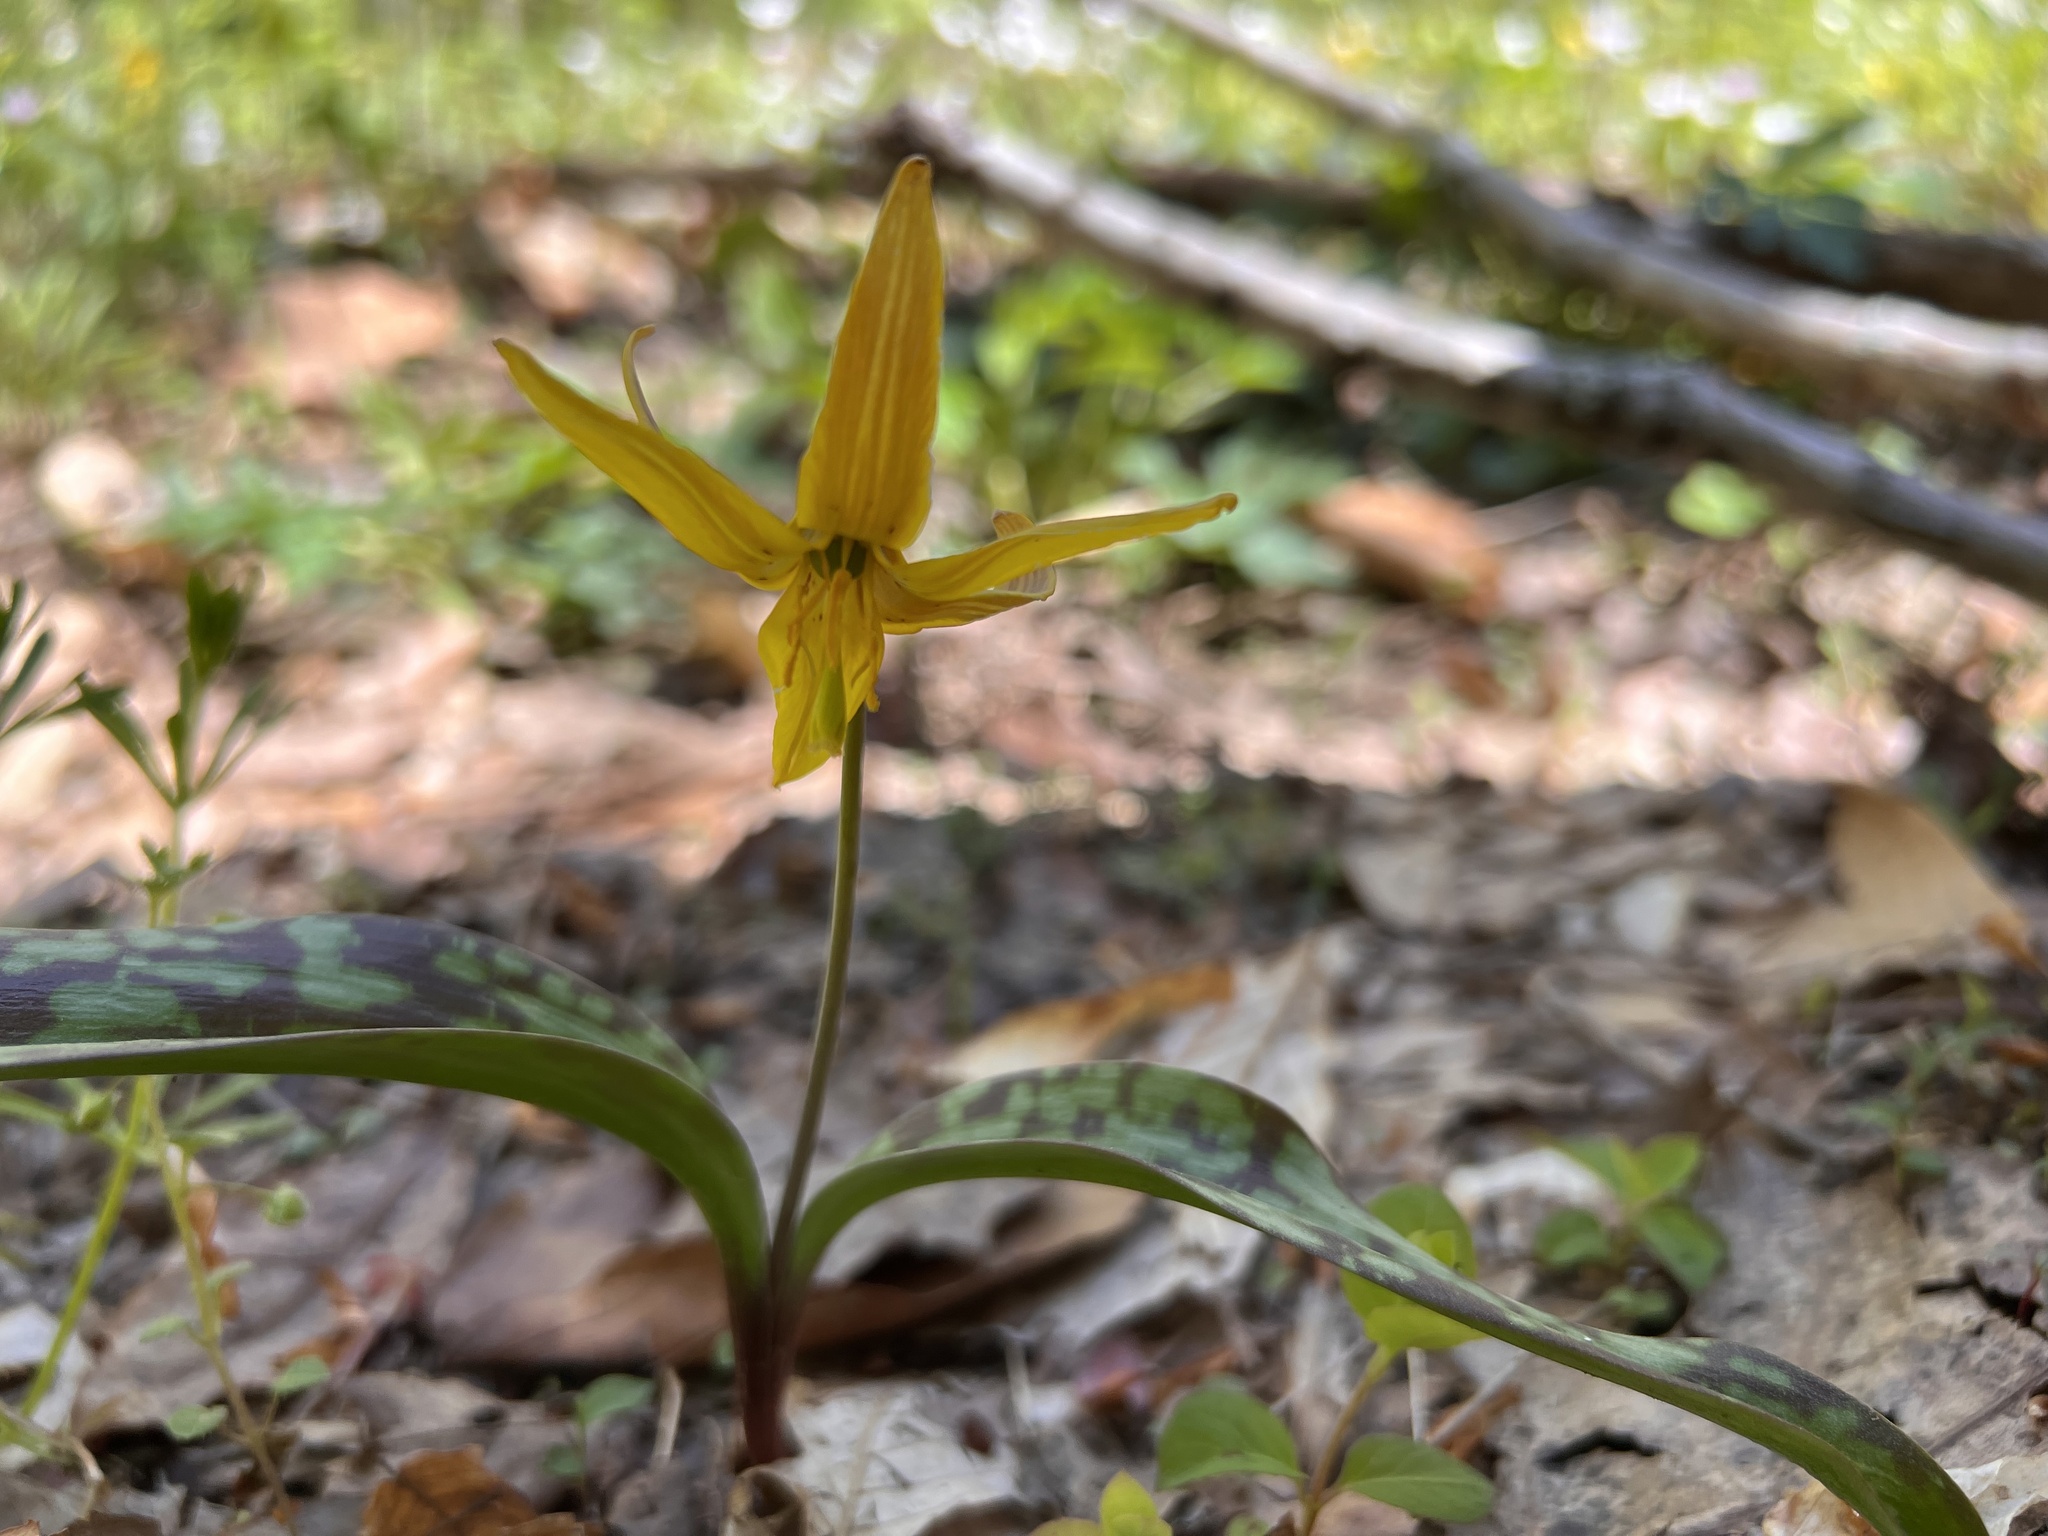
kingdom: Plantae
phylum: Tracheophyta
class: Liliopsida
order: Liliales
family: Liliaceae
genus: Erythronium
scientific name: Erythronium americanum
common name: Yellow adder's-tongue
